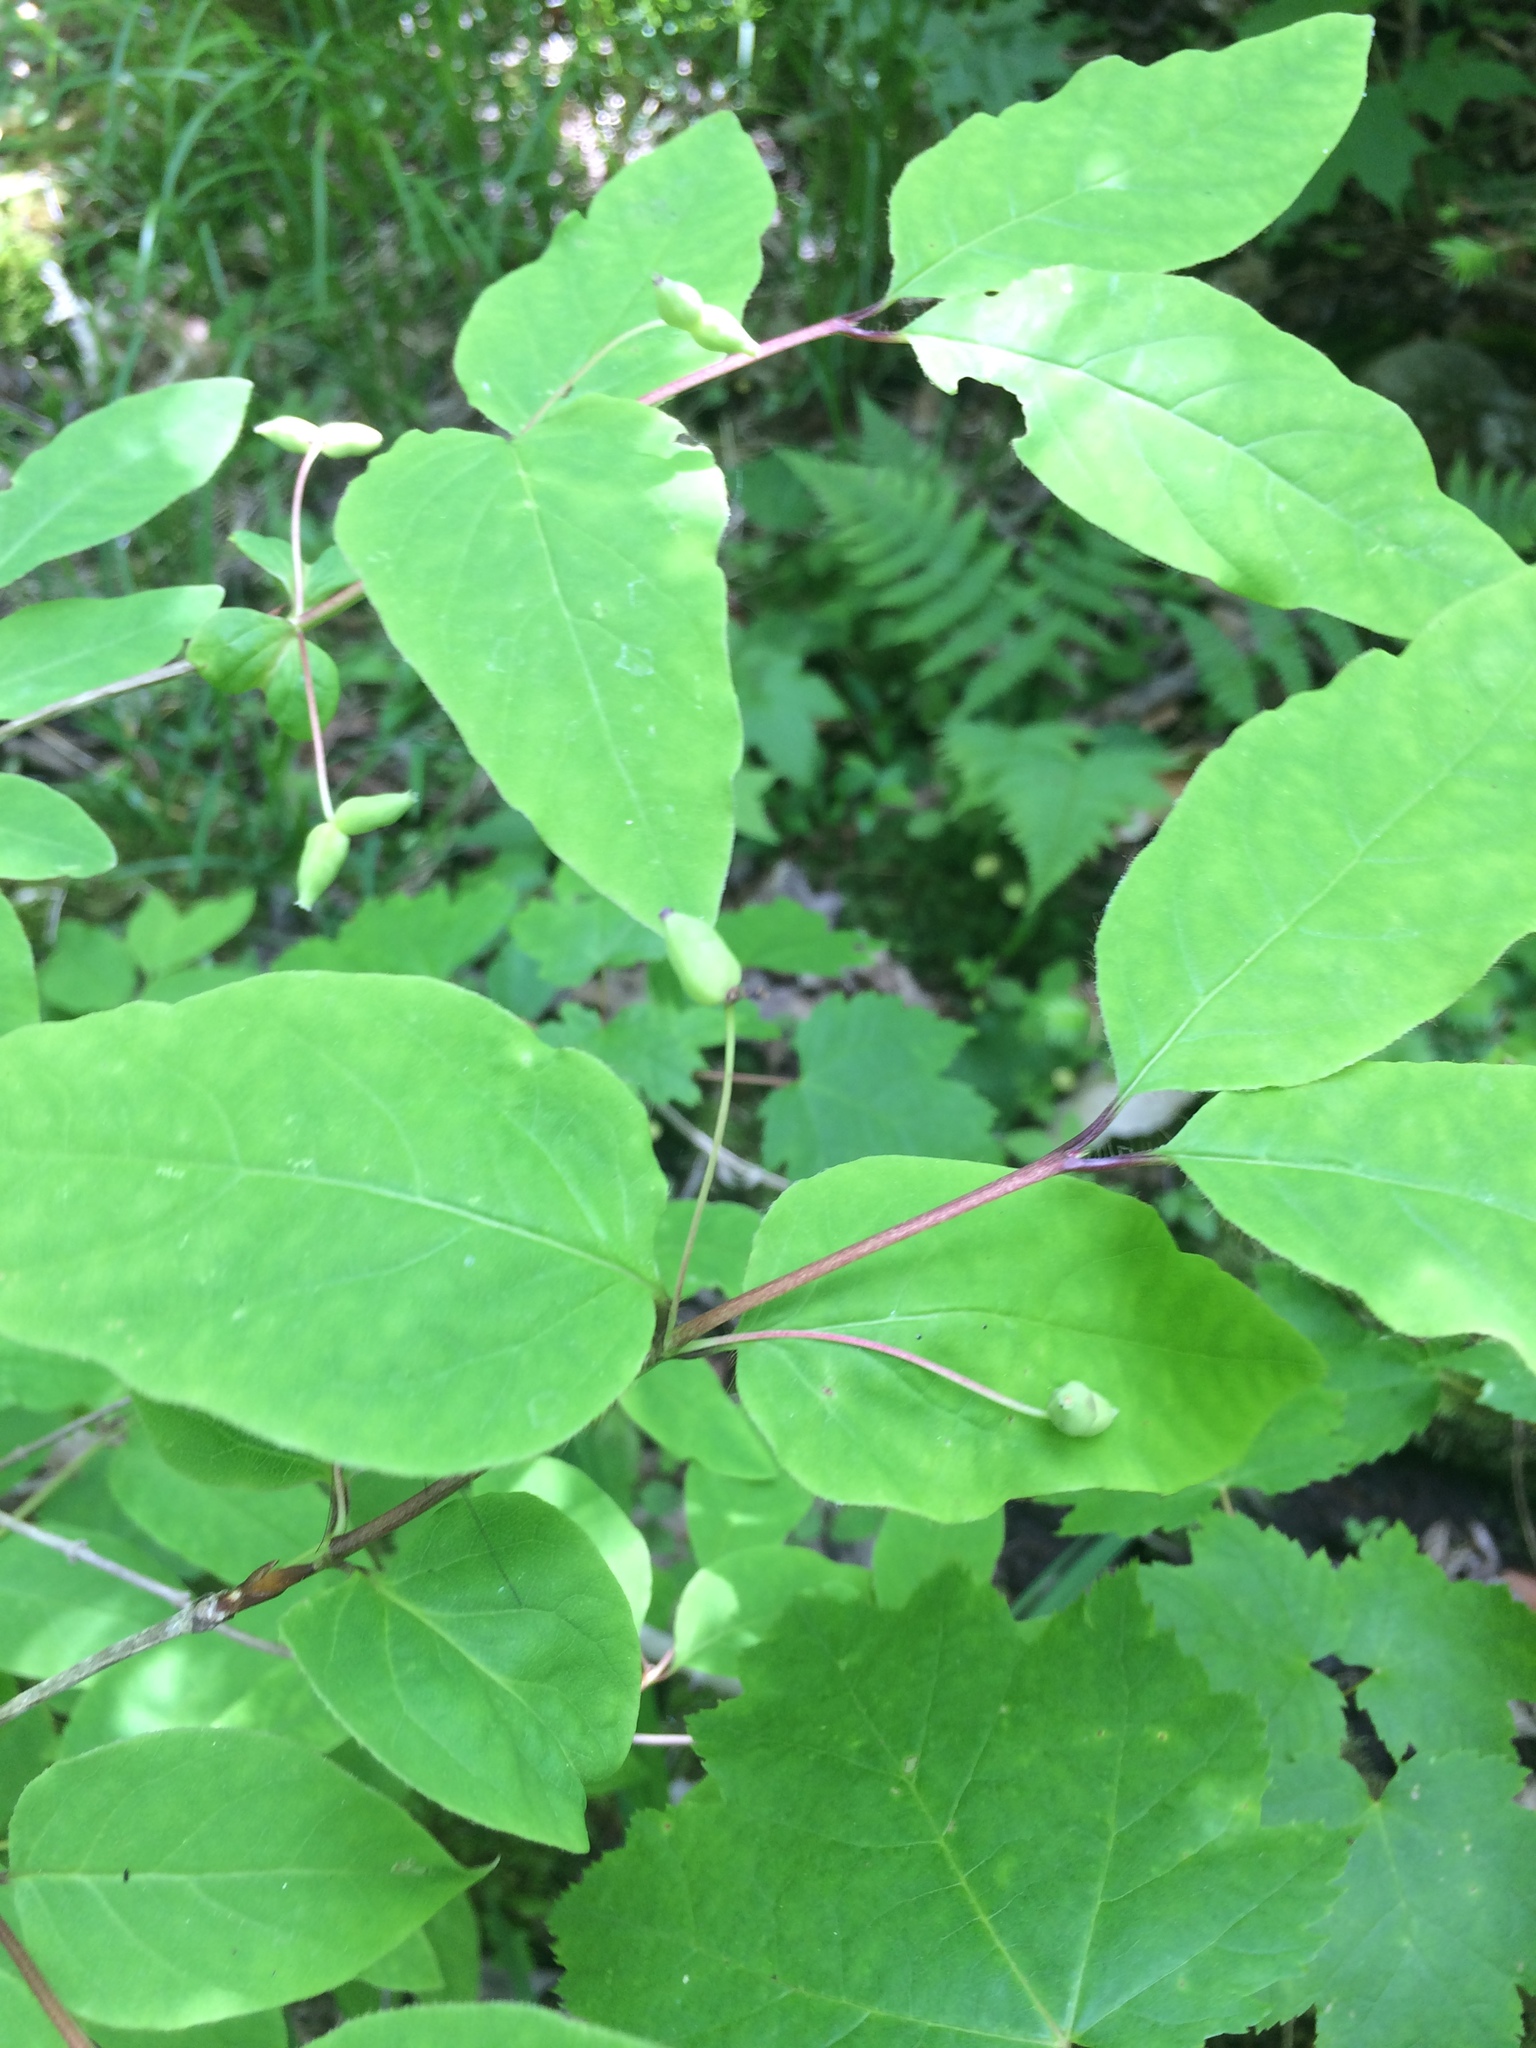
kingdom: Plantae
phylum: Tracheophyta
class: Magnoliopsida
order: Dipsacales
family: Caprifoliaceae
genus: Lonicera
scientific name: Lonicera canadensis
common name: American fly-honeysuckle
